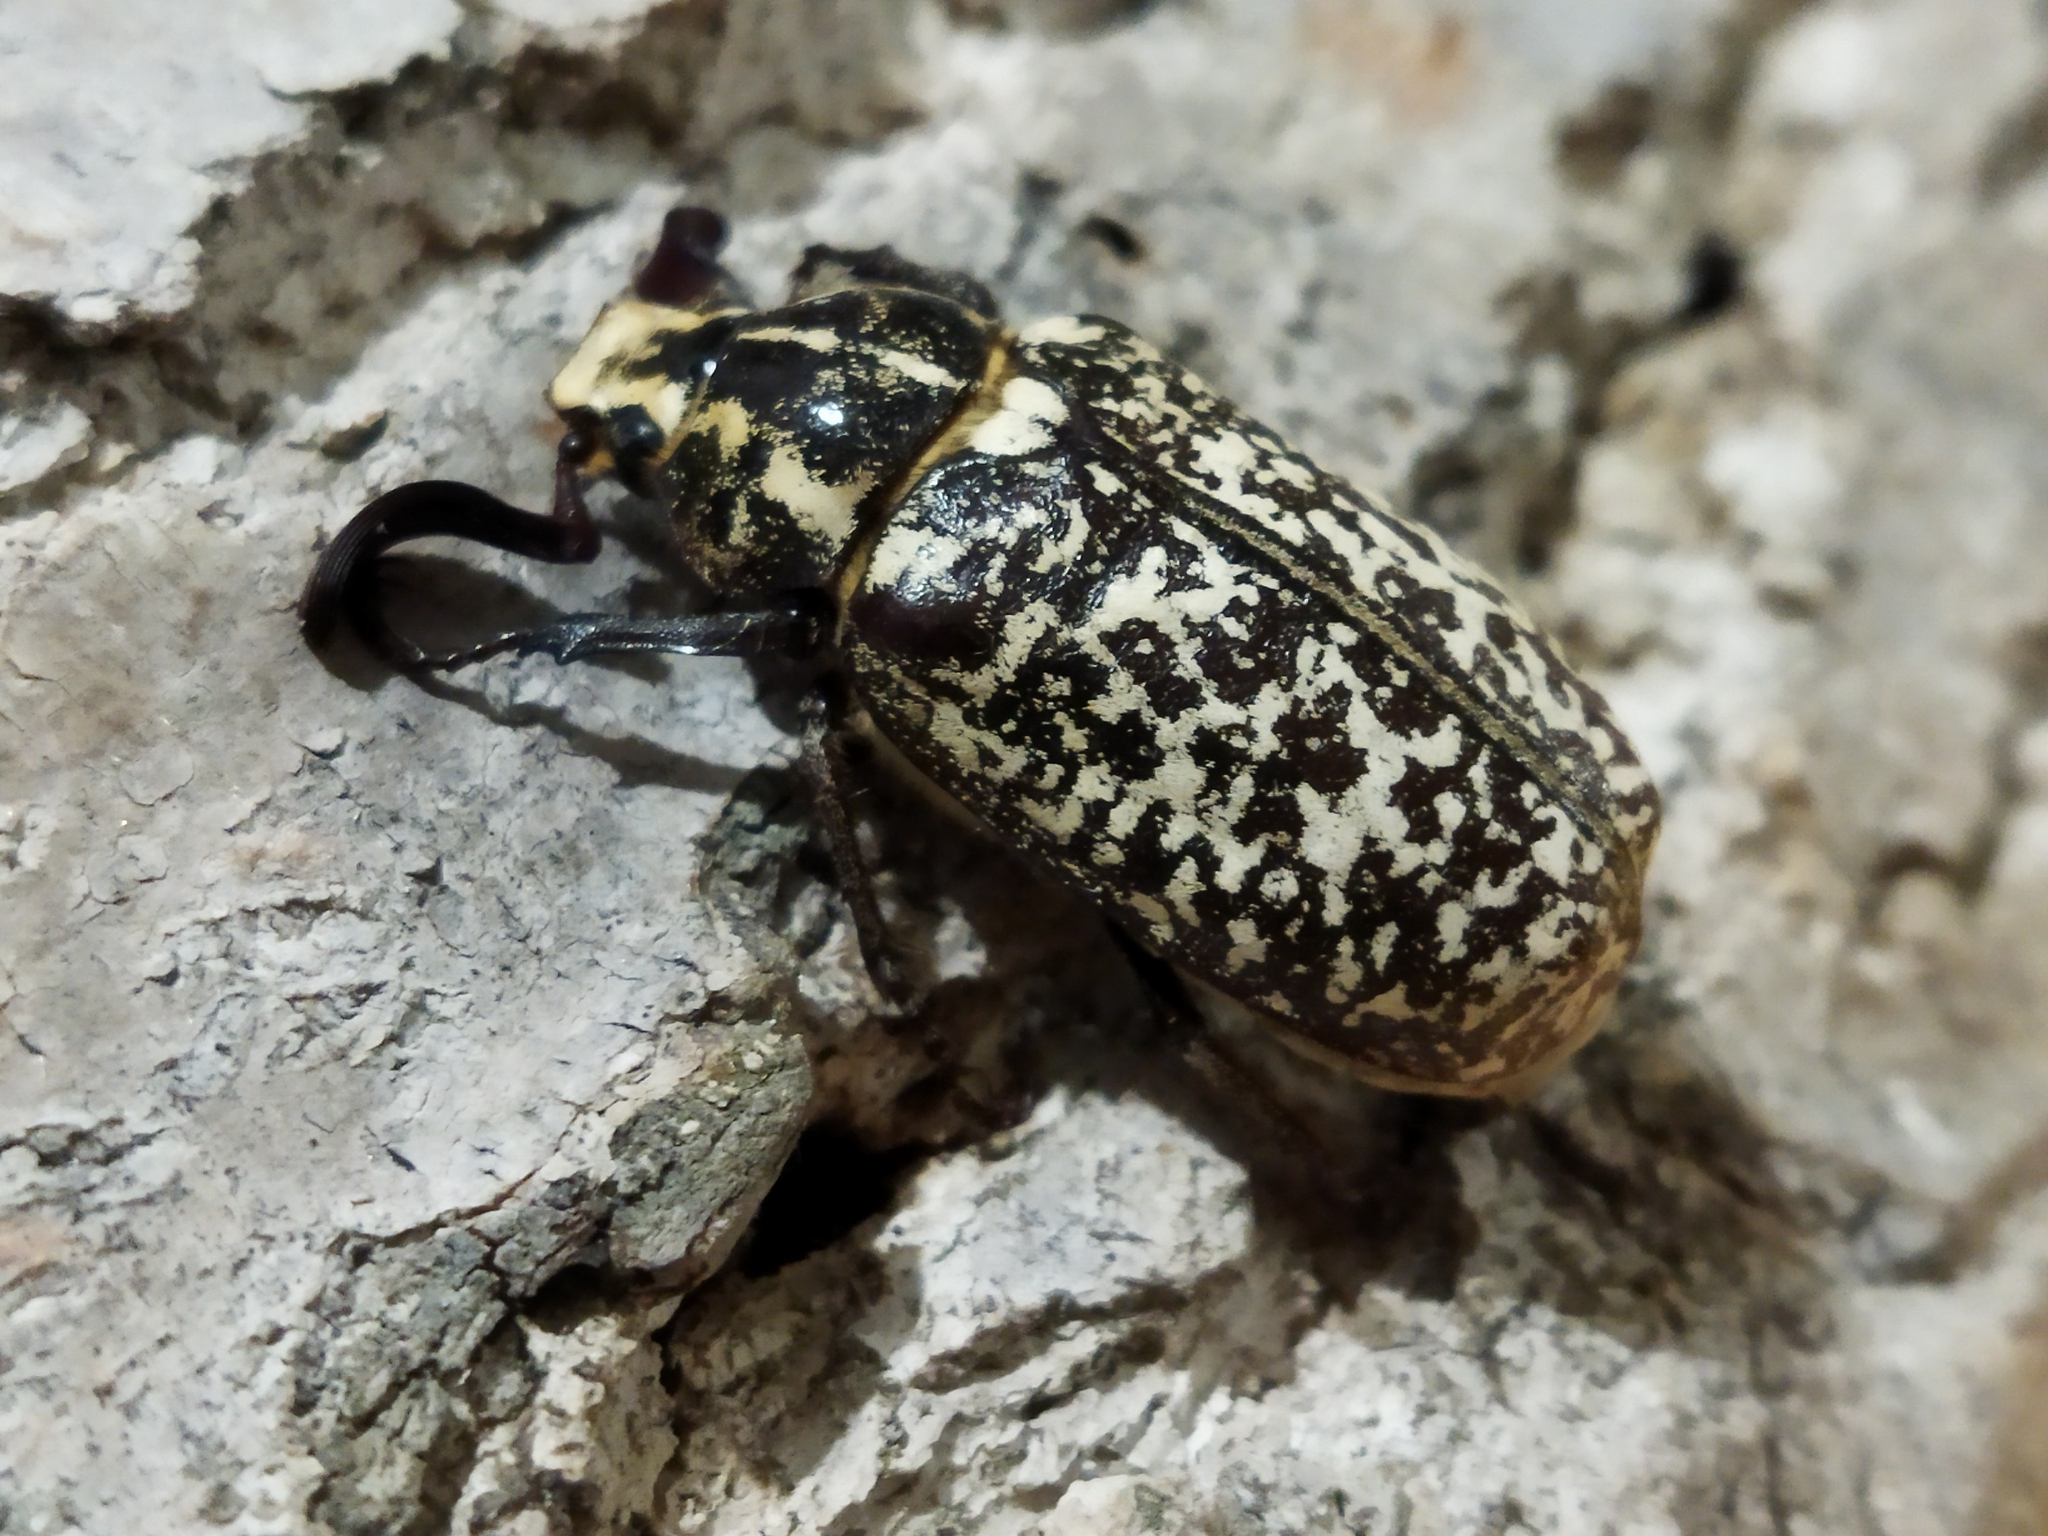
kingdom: Animalia
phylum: Arthropoda
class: Insecta
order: Coleoptera
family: Scarabaeidae
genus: Polyphylla
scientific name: Polyphylla fullo
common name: Pine chafer
